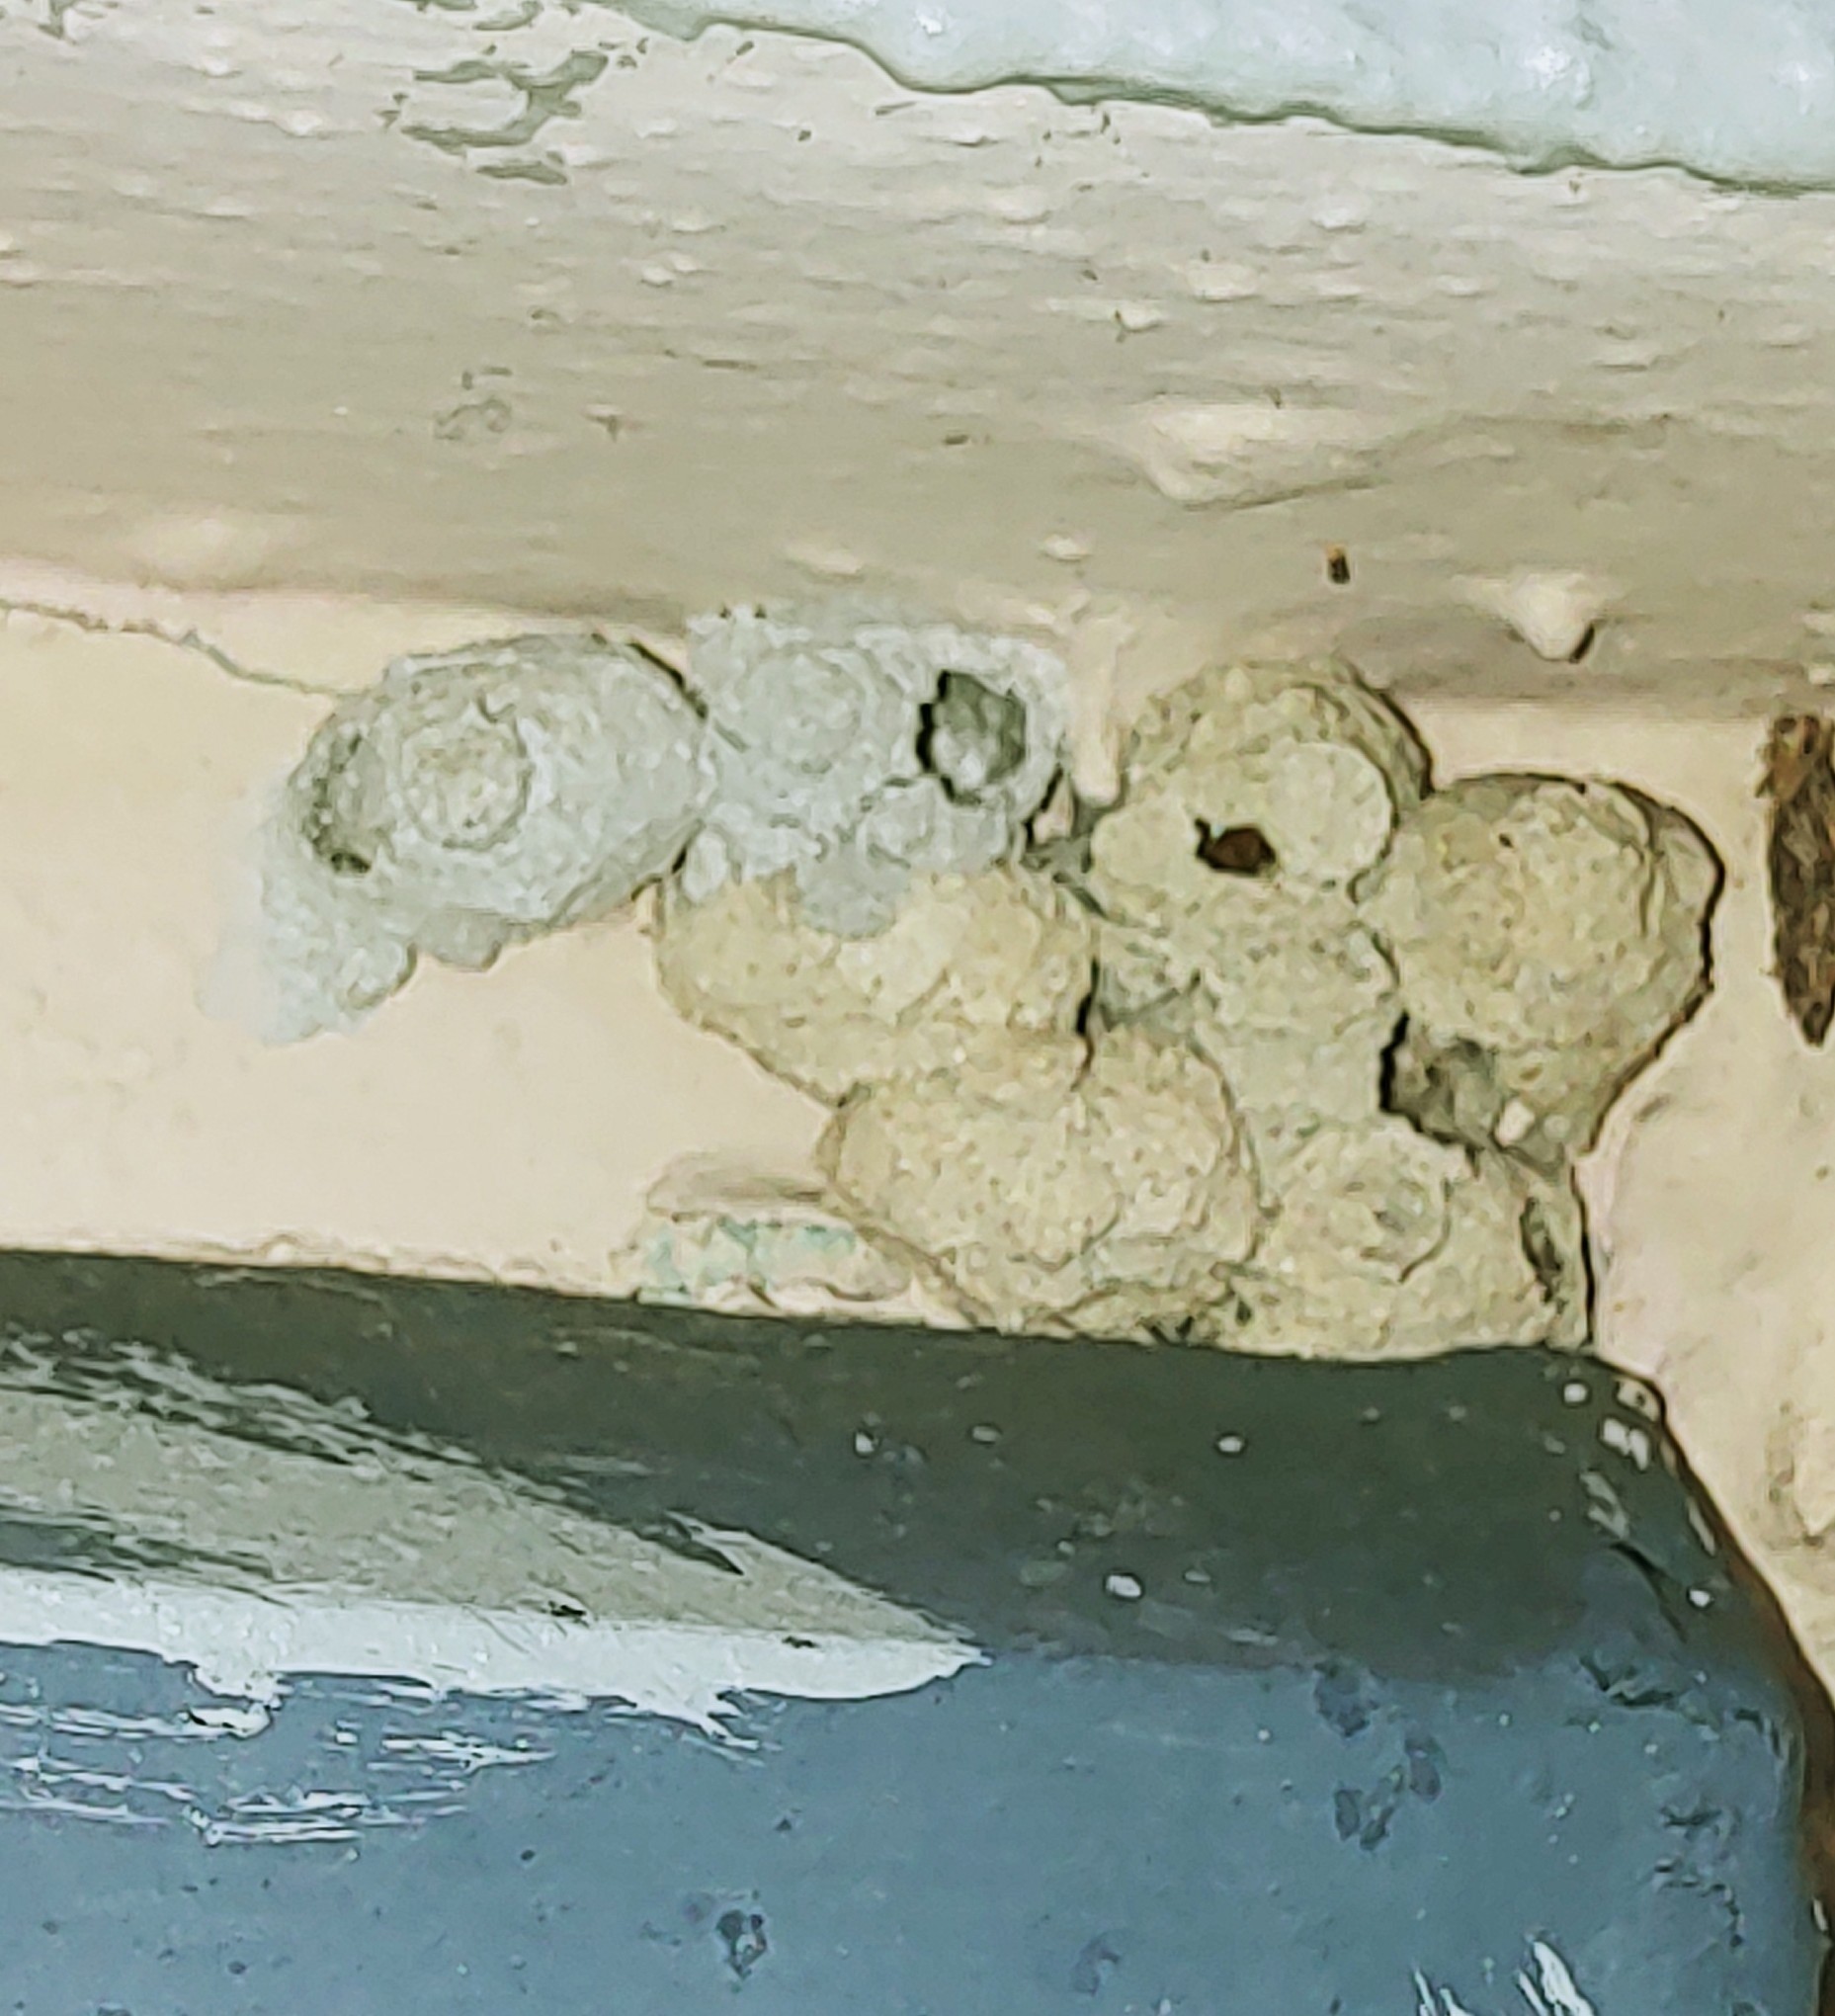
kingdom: Animalia
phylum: Arthropoda
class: Insecta
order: Hymenoptera
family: Eumenidae
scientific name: Eumenidae
